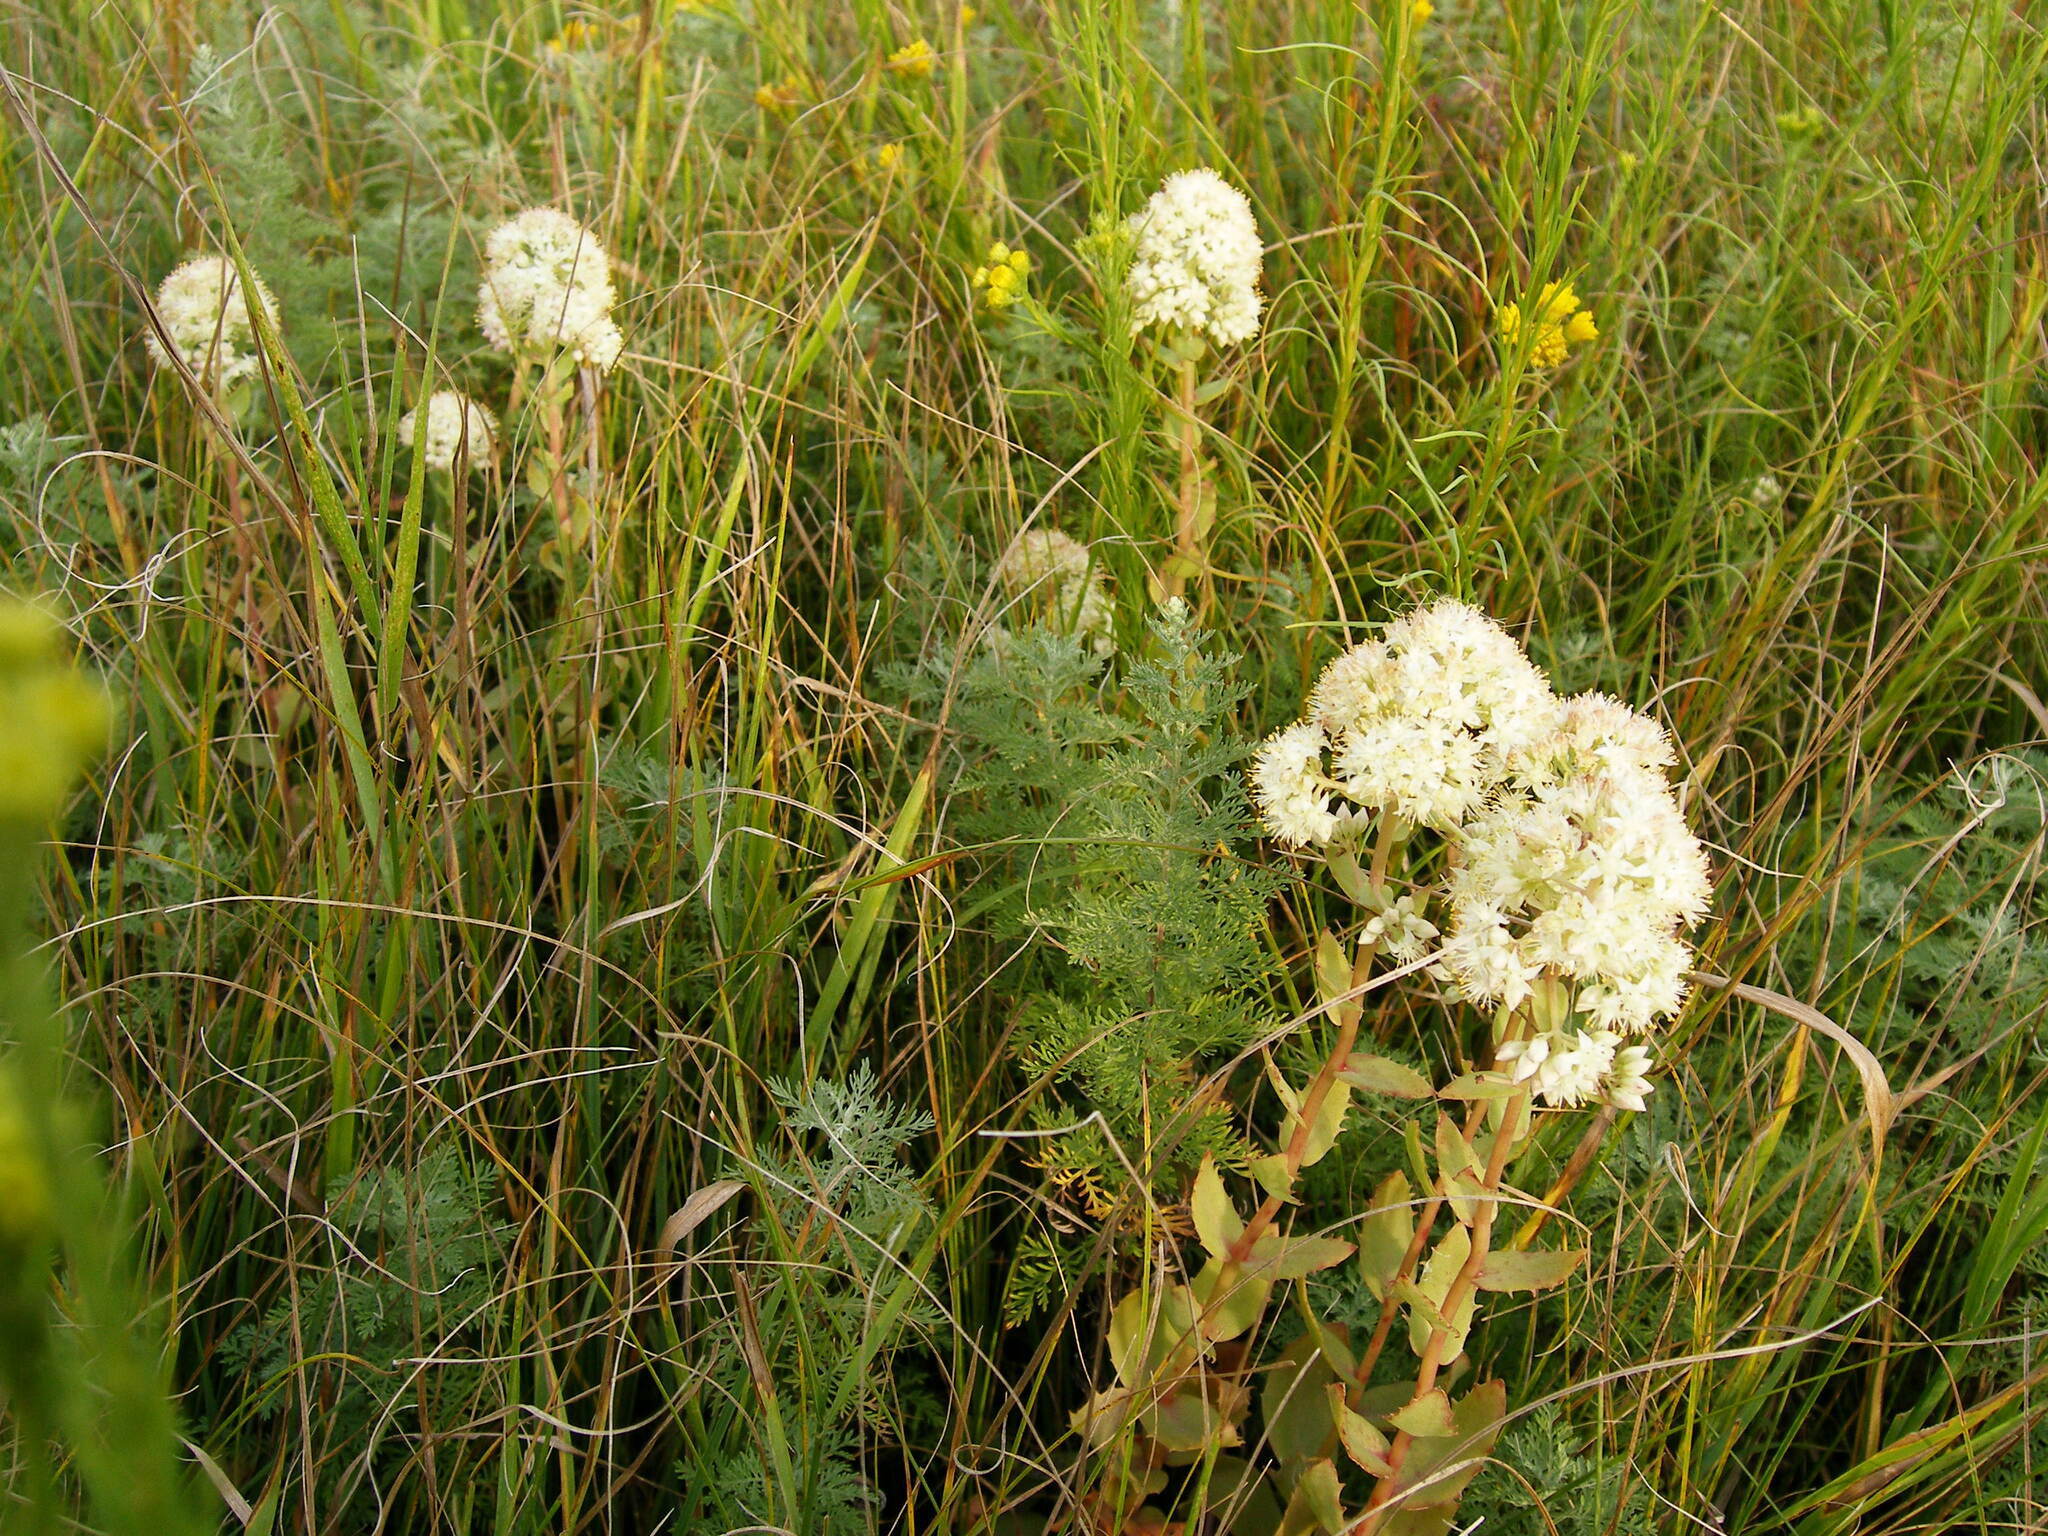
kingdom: Plantae
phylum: Tracheophyta
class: Magnoliopsida
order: Saxifragales
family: Crassulaceae
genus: Hylotelephium
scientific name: Hylotelephium maximum
